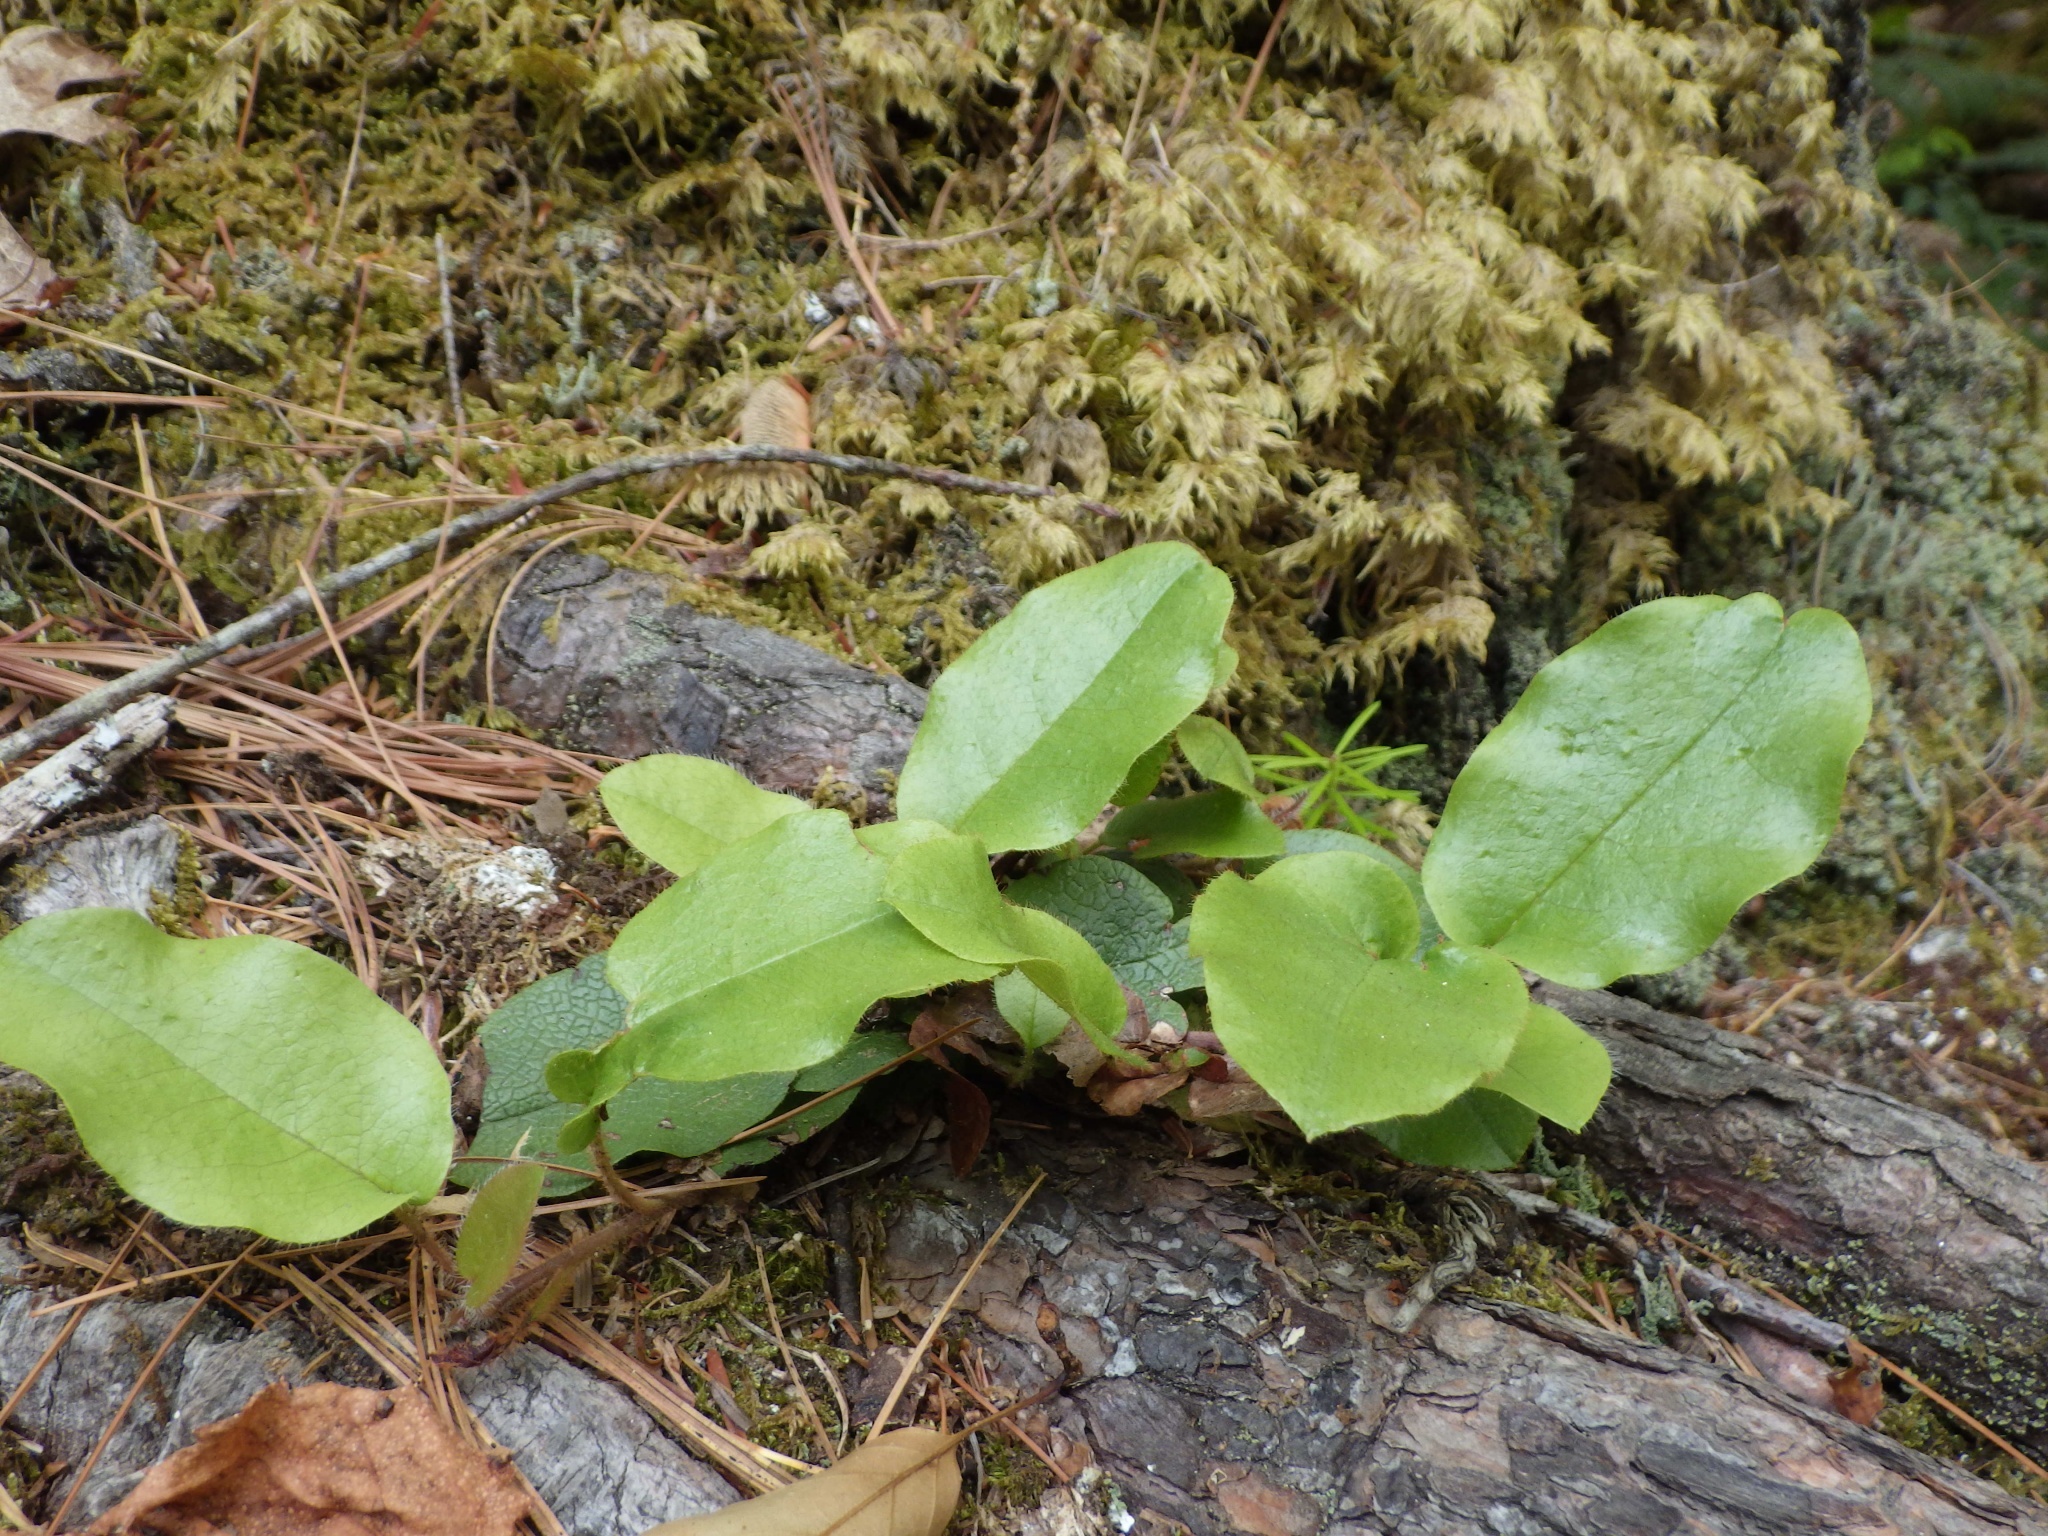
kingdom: Plantae
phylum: Tracheophyta
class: Magnoliopsida
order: Ericales
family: Ericaceae
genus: Epigaea
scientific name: Epigaea repens
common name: Gravelroot
